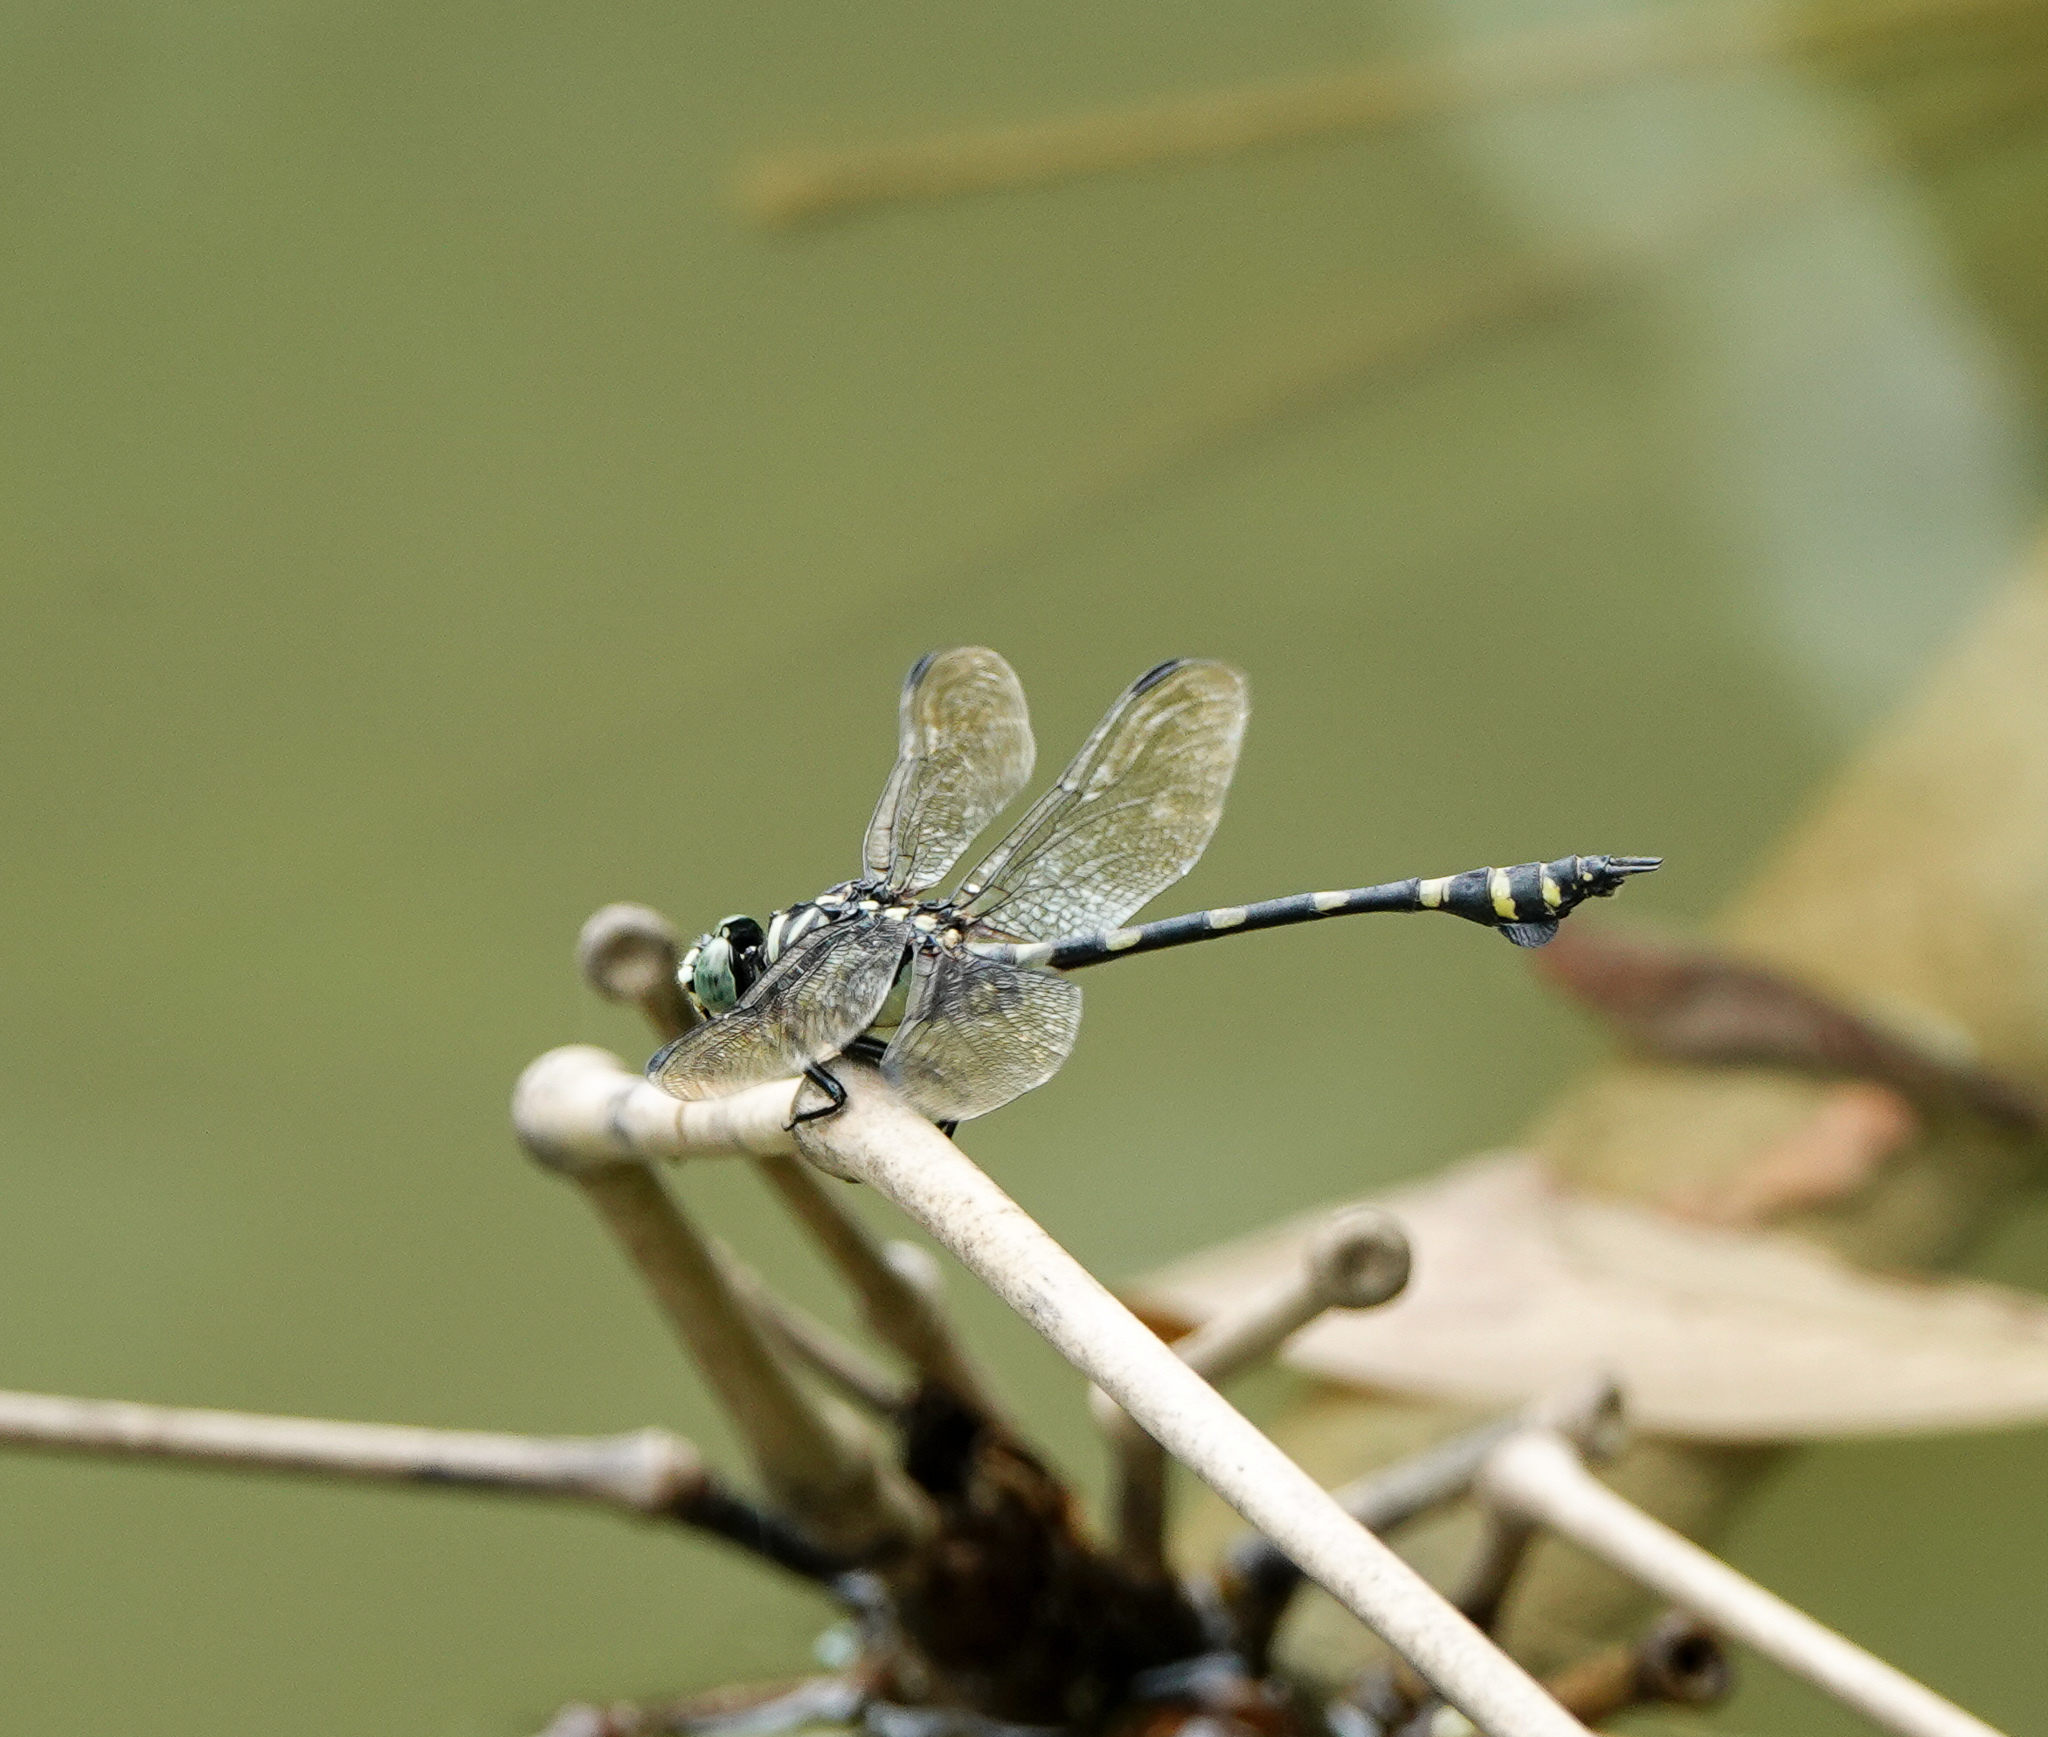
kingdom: Animalia
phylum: Arthropoda
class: Insecta
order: Odonata
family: Gomphidae
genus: Ictinogomphus
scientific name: Ictinogomphus rapax
